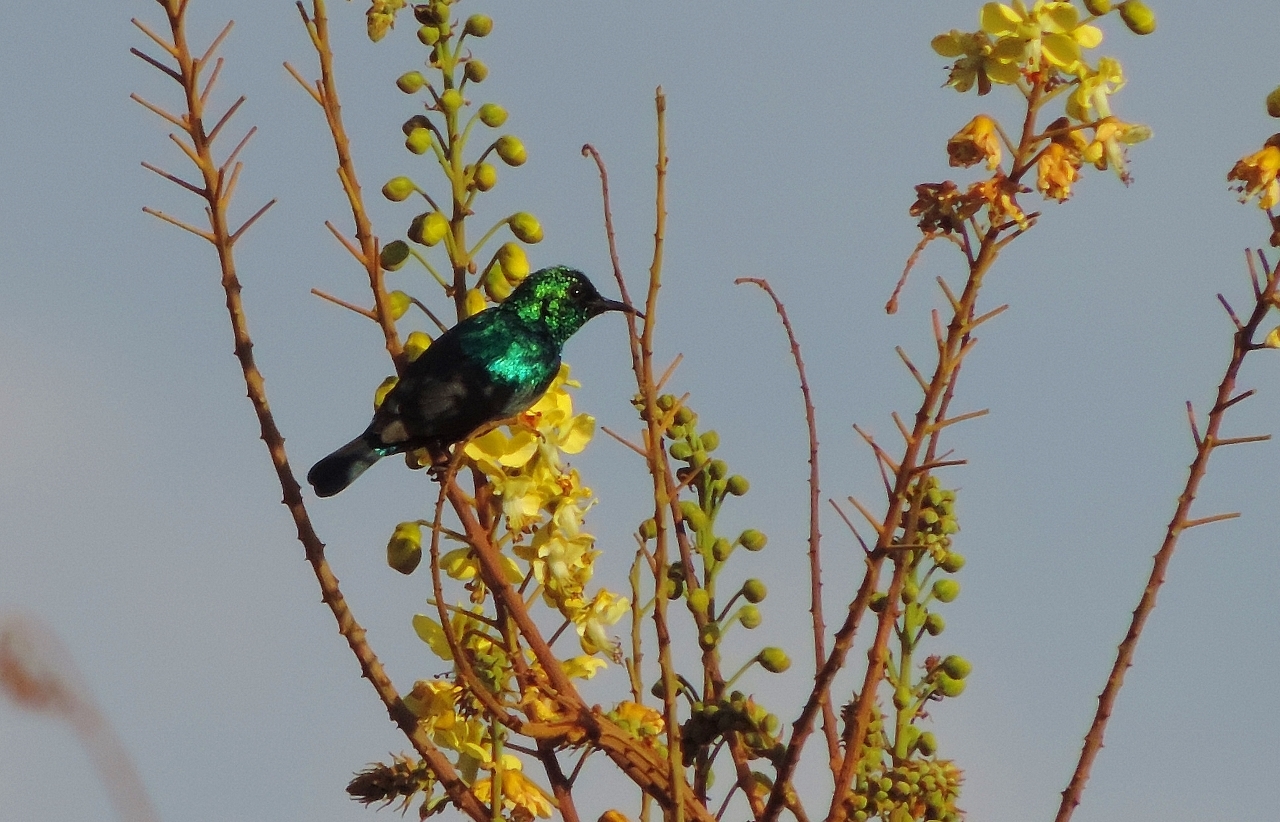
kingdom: Animalia
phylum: Chordata
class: Aves
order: Passeriformes
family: Nectariniidae
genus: Cinnyris
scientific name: Cinnyris bifasciatus
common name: Purple-banded sunbird
